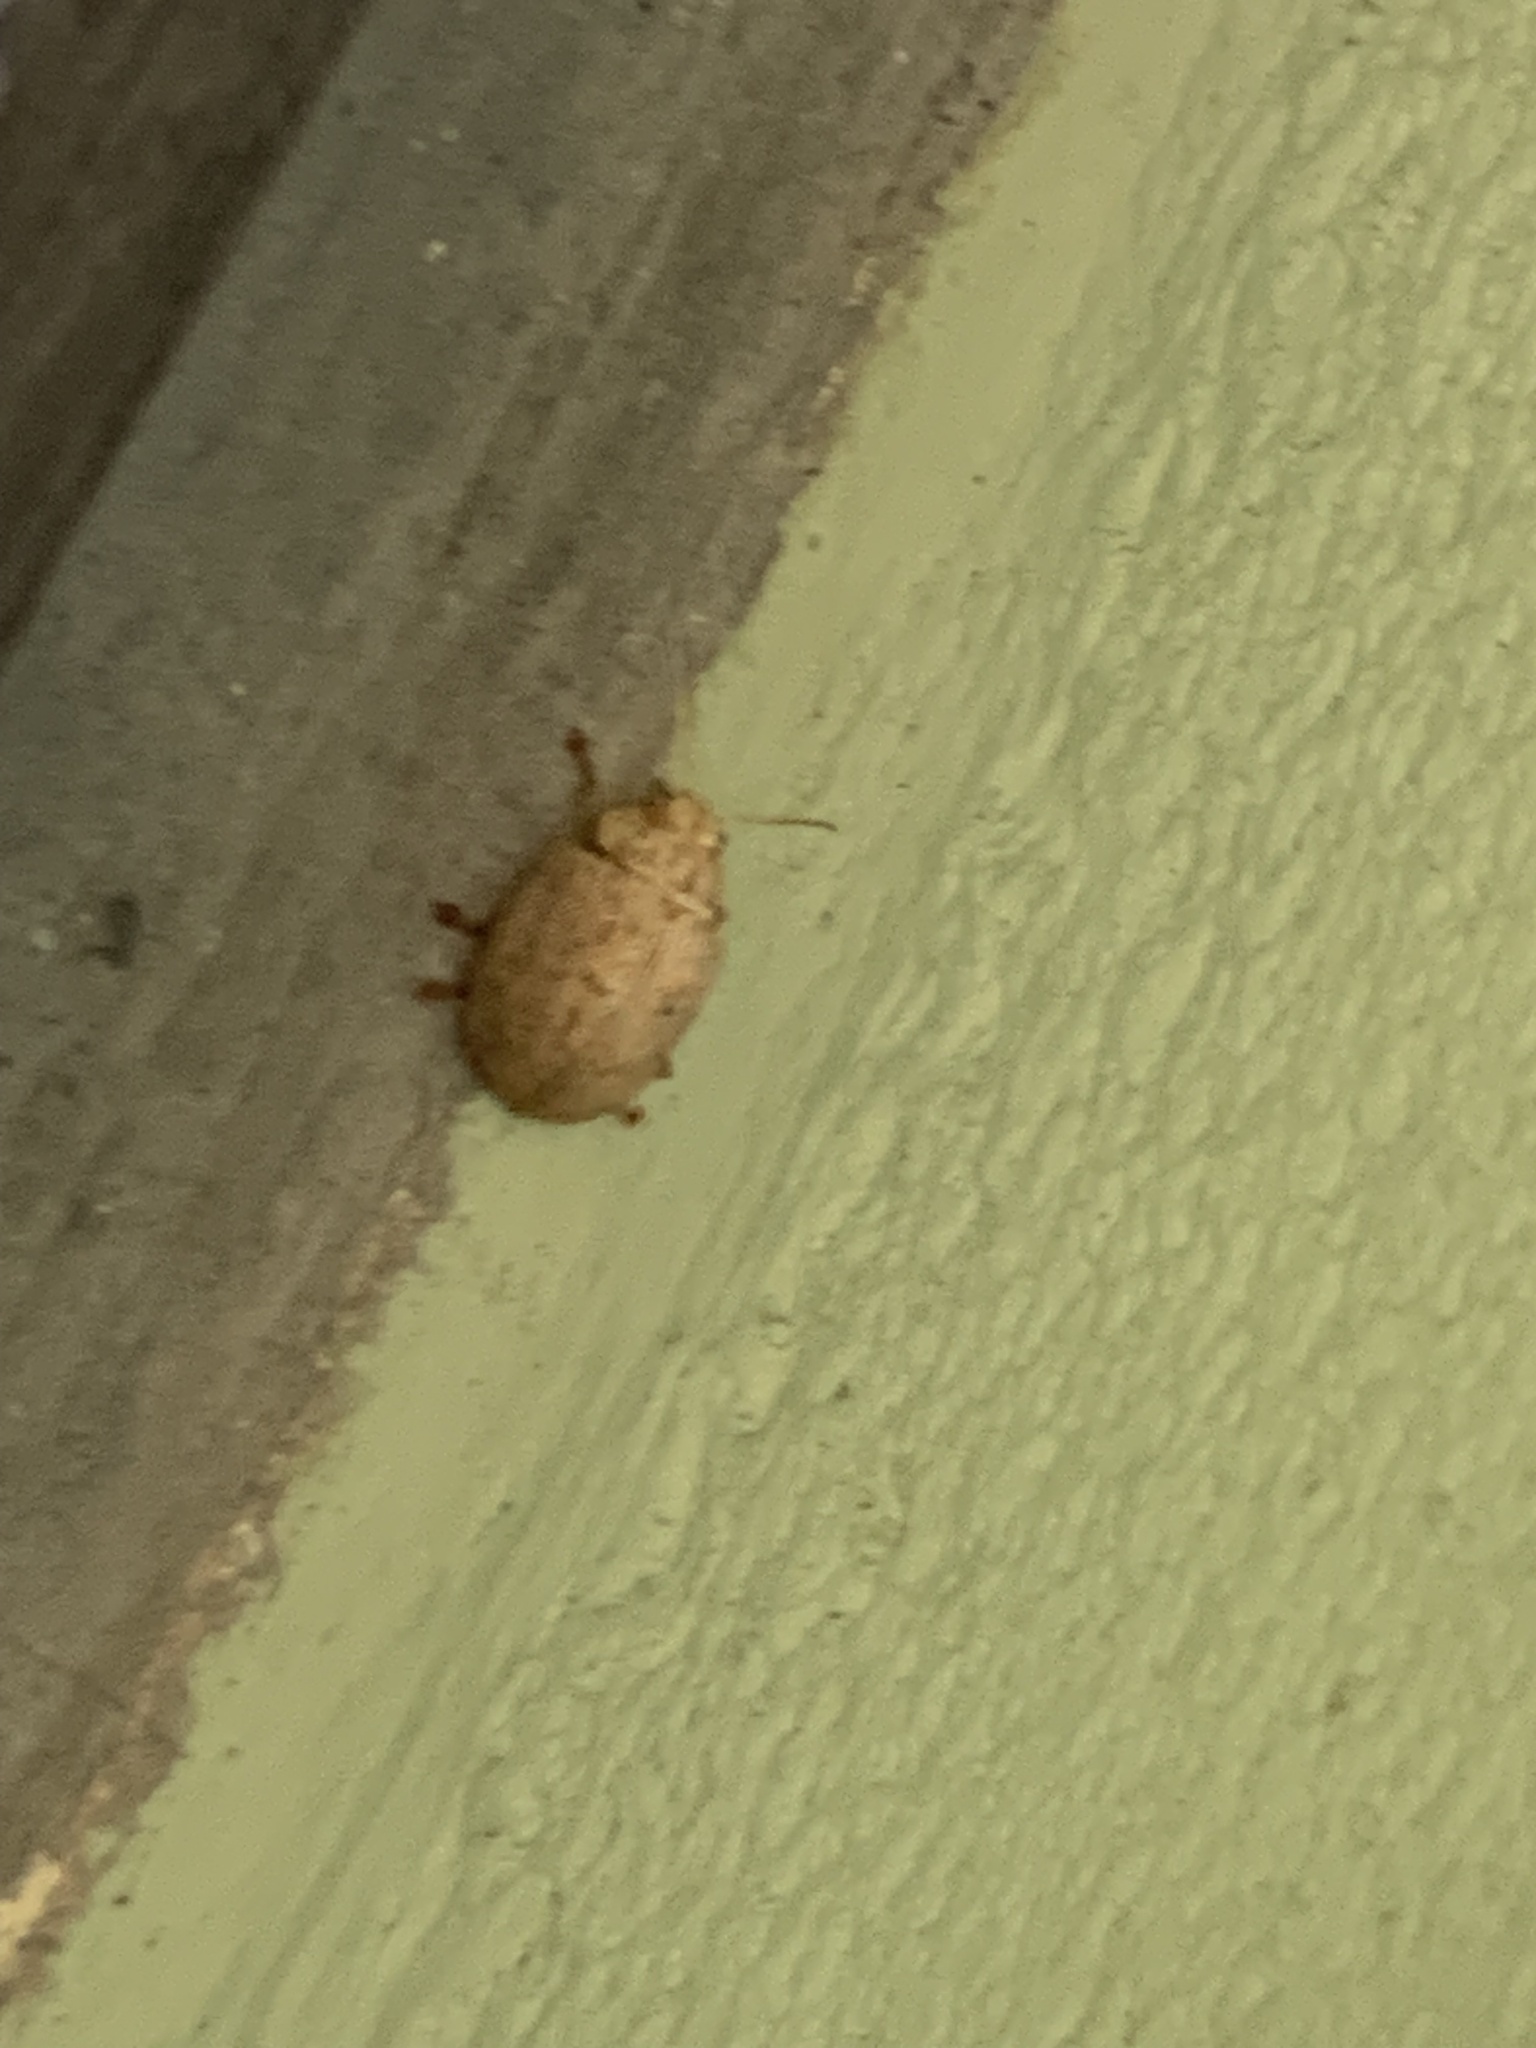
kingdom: Animalia
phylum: Arthropoda
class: Insecta
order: Coleoptera
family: Chrysomelidae
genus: Paropsis
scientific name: Paropsis
